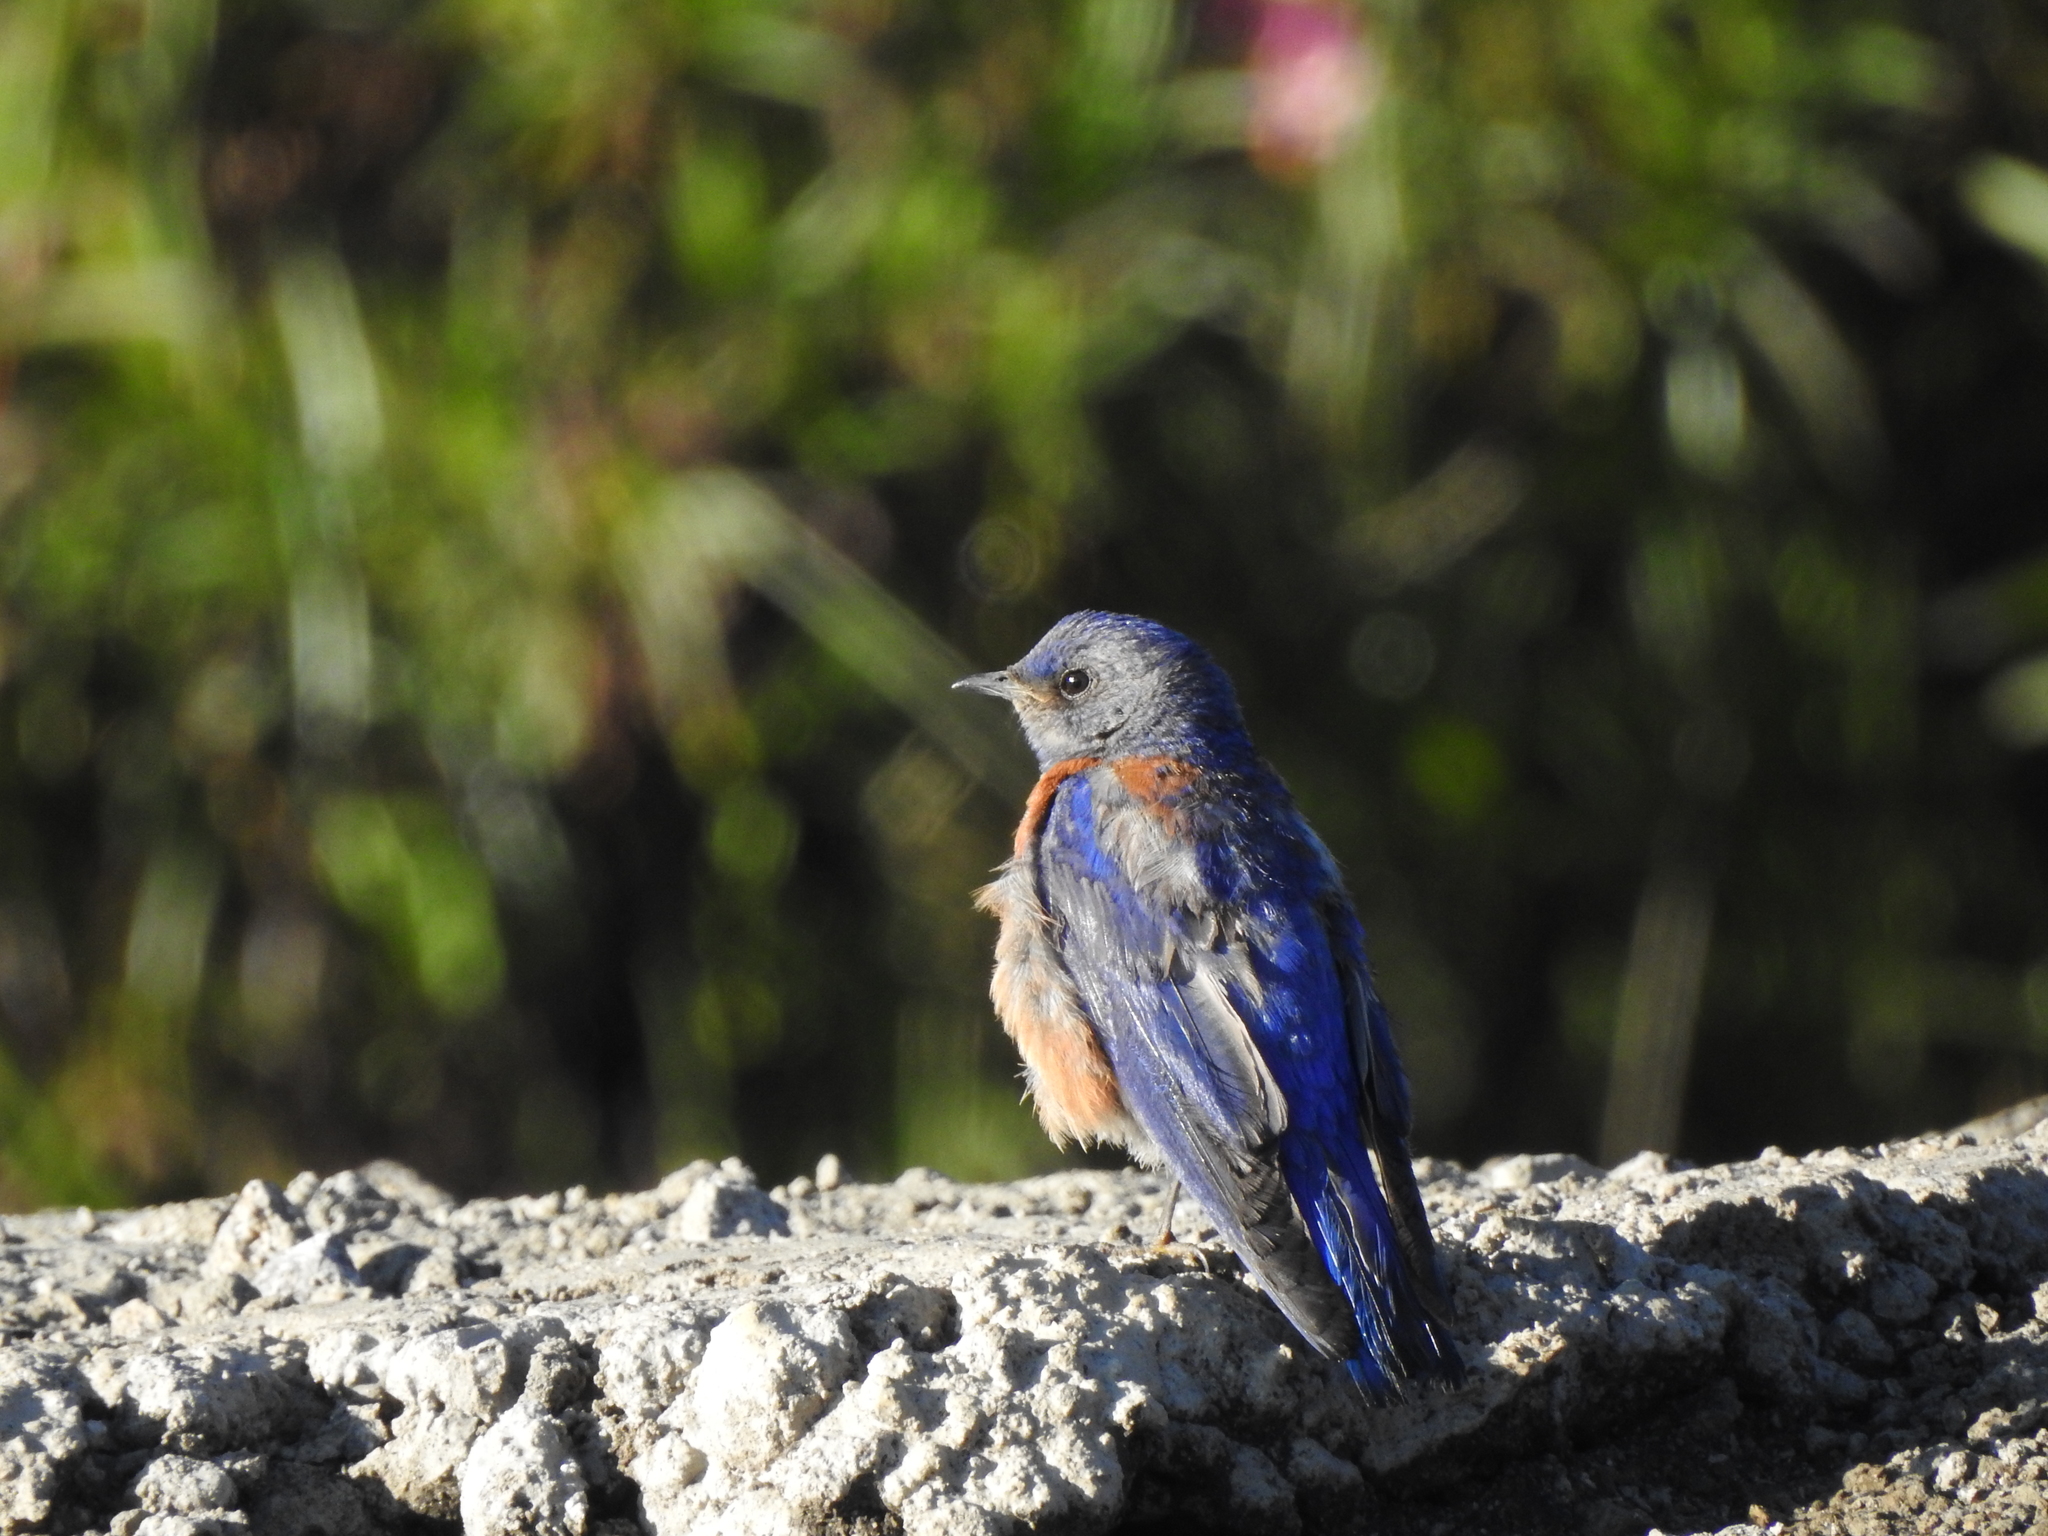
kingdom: Animalia
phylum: Chordata
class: Aves
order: Passeriformes
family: Turdidae
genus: Sialia
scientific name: Sialia mexicana
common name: Western bluebird
